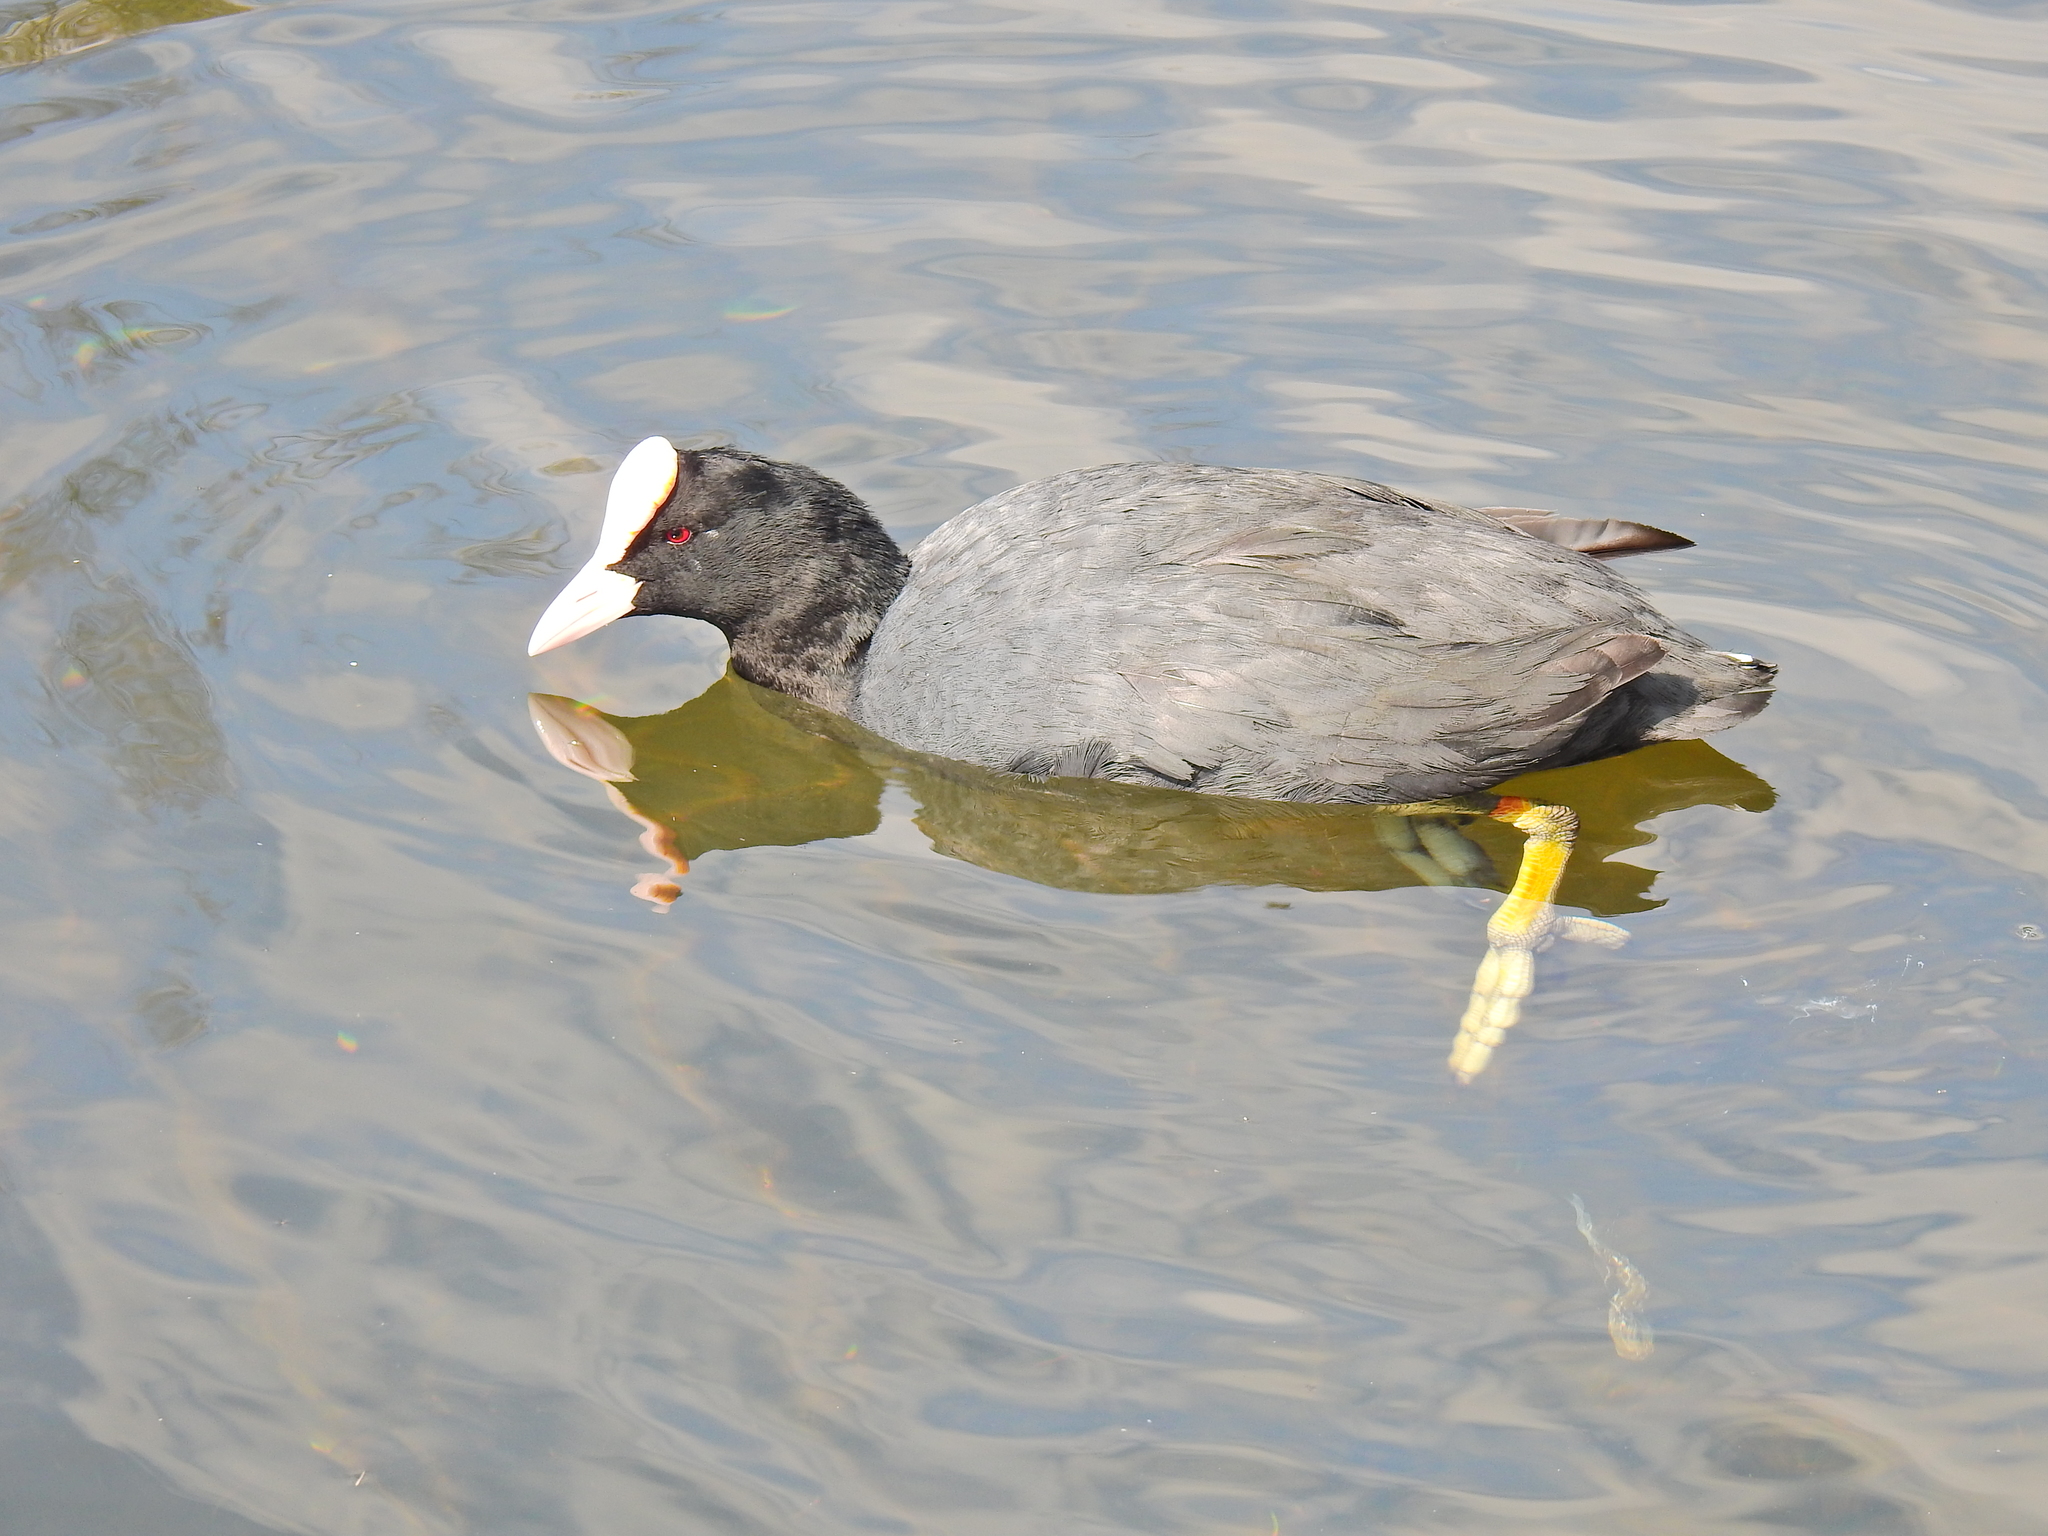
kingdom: Animalia
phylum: Chordata
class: Aves
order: Gruiformes
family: Rallidae
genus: Fulica
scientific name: Fulica atra
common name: Eurasian coot
